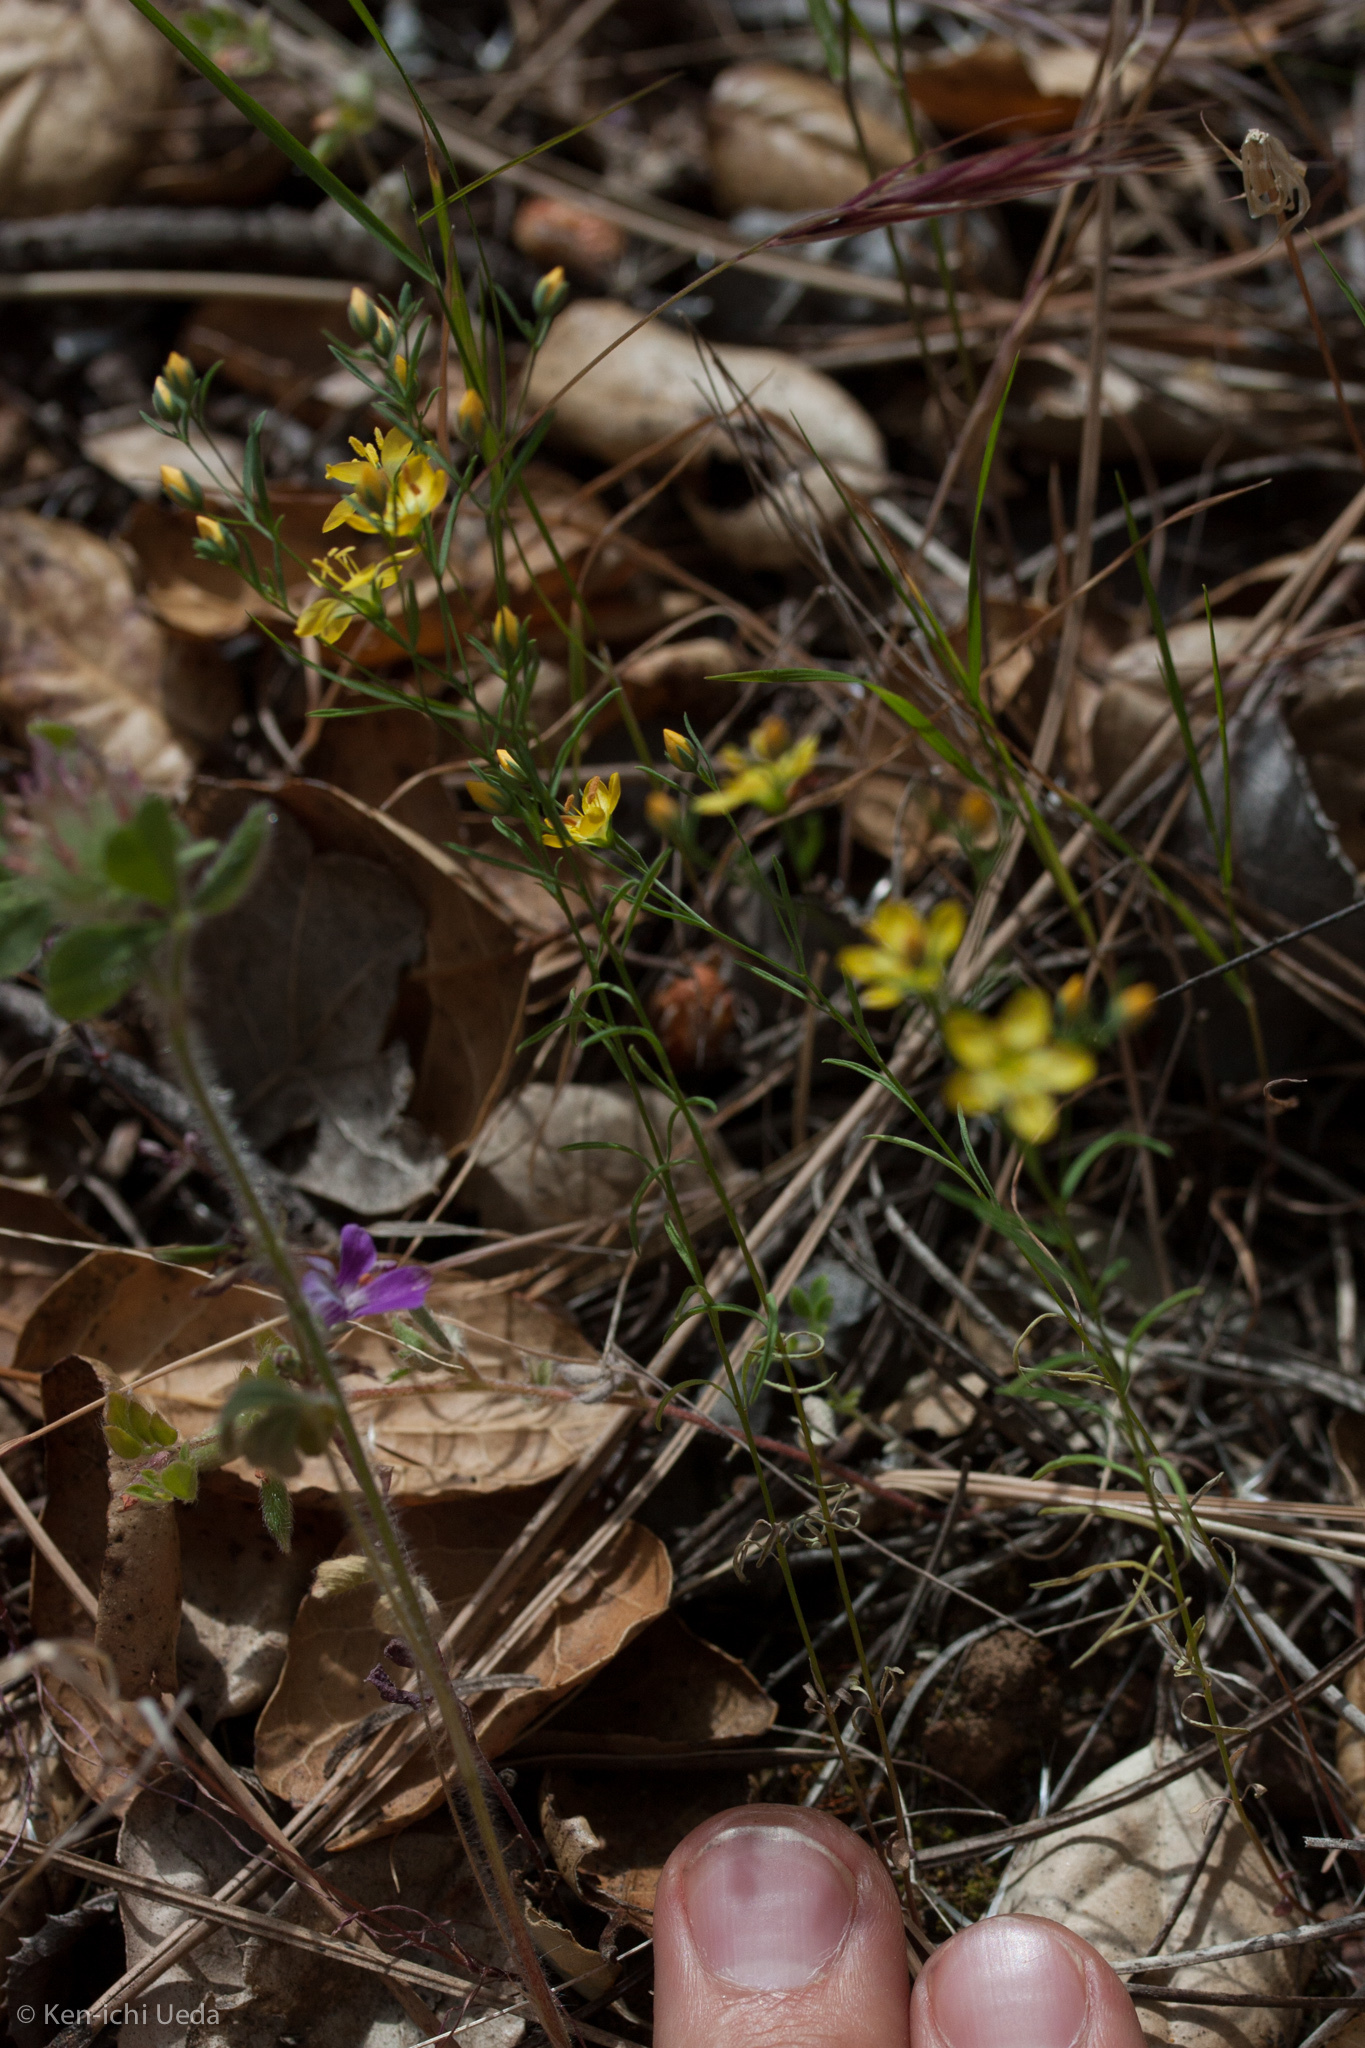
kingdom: Plantae
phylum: Tracheophyta
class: Magnoliopsida
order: Malpighiales
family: Linaceae
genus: Hesperolinon
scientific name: Hesperolinon breweri
